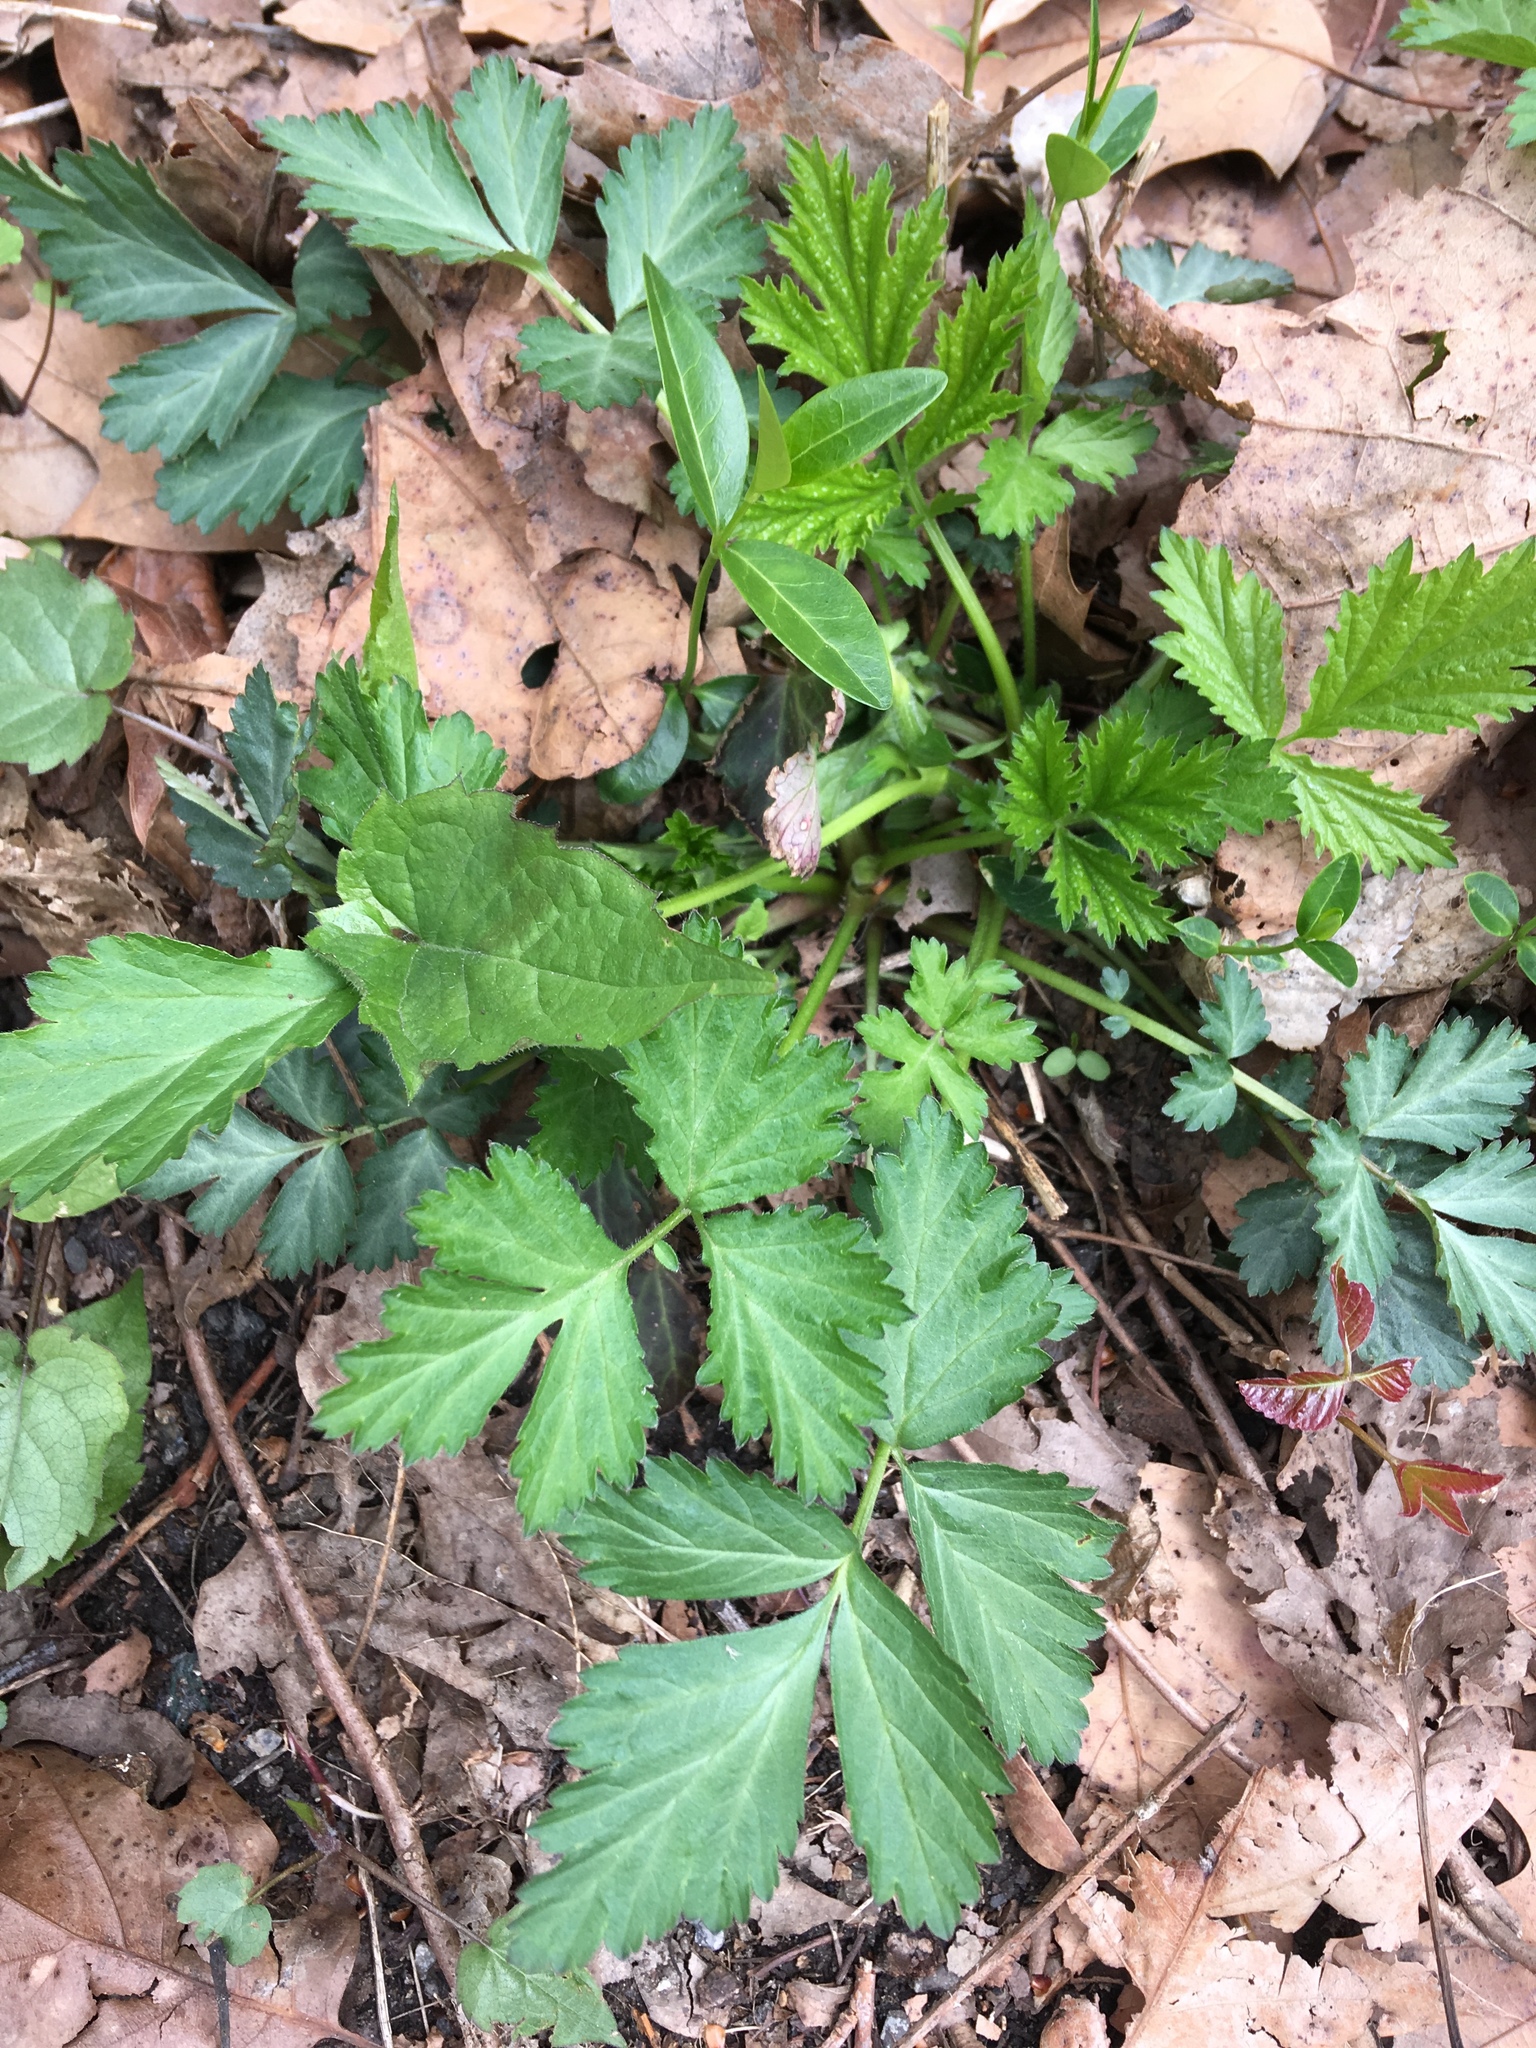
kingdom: Plantae
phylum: Tracheophyta
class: Magnoliopsida
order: Rosales
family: Rosaceae
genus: Geum
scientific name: Geum canadense
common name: White avens
